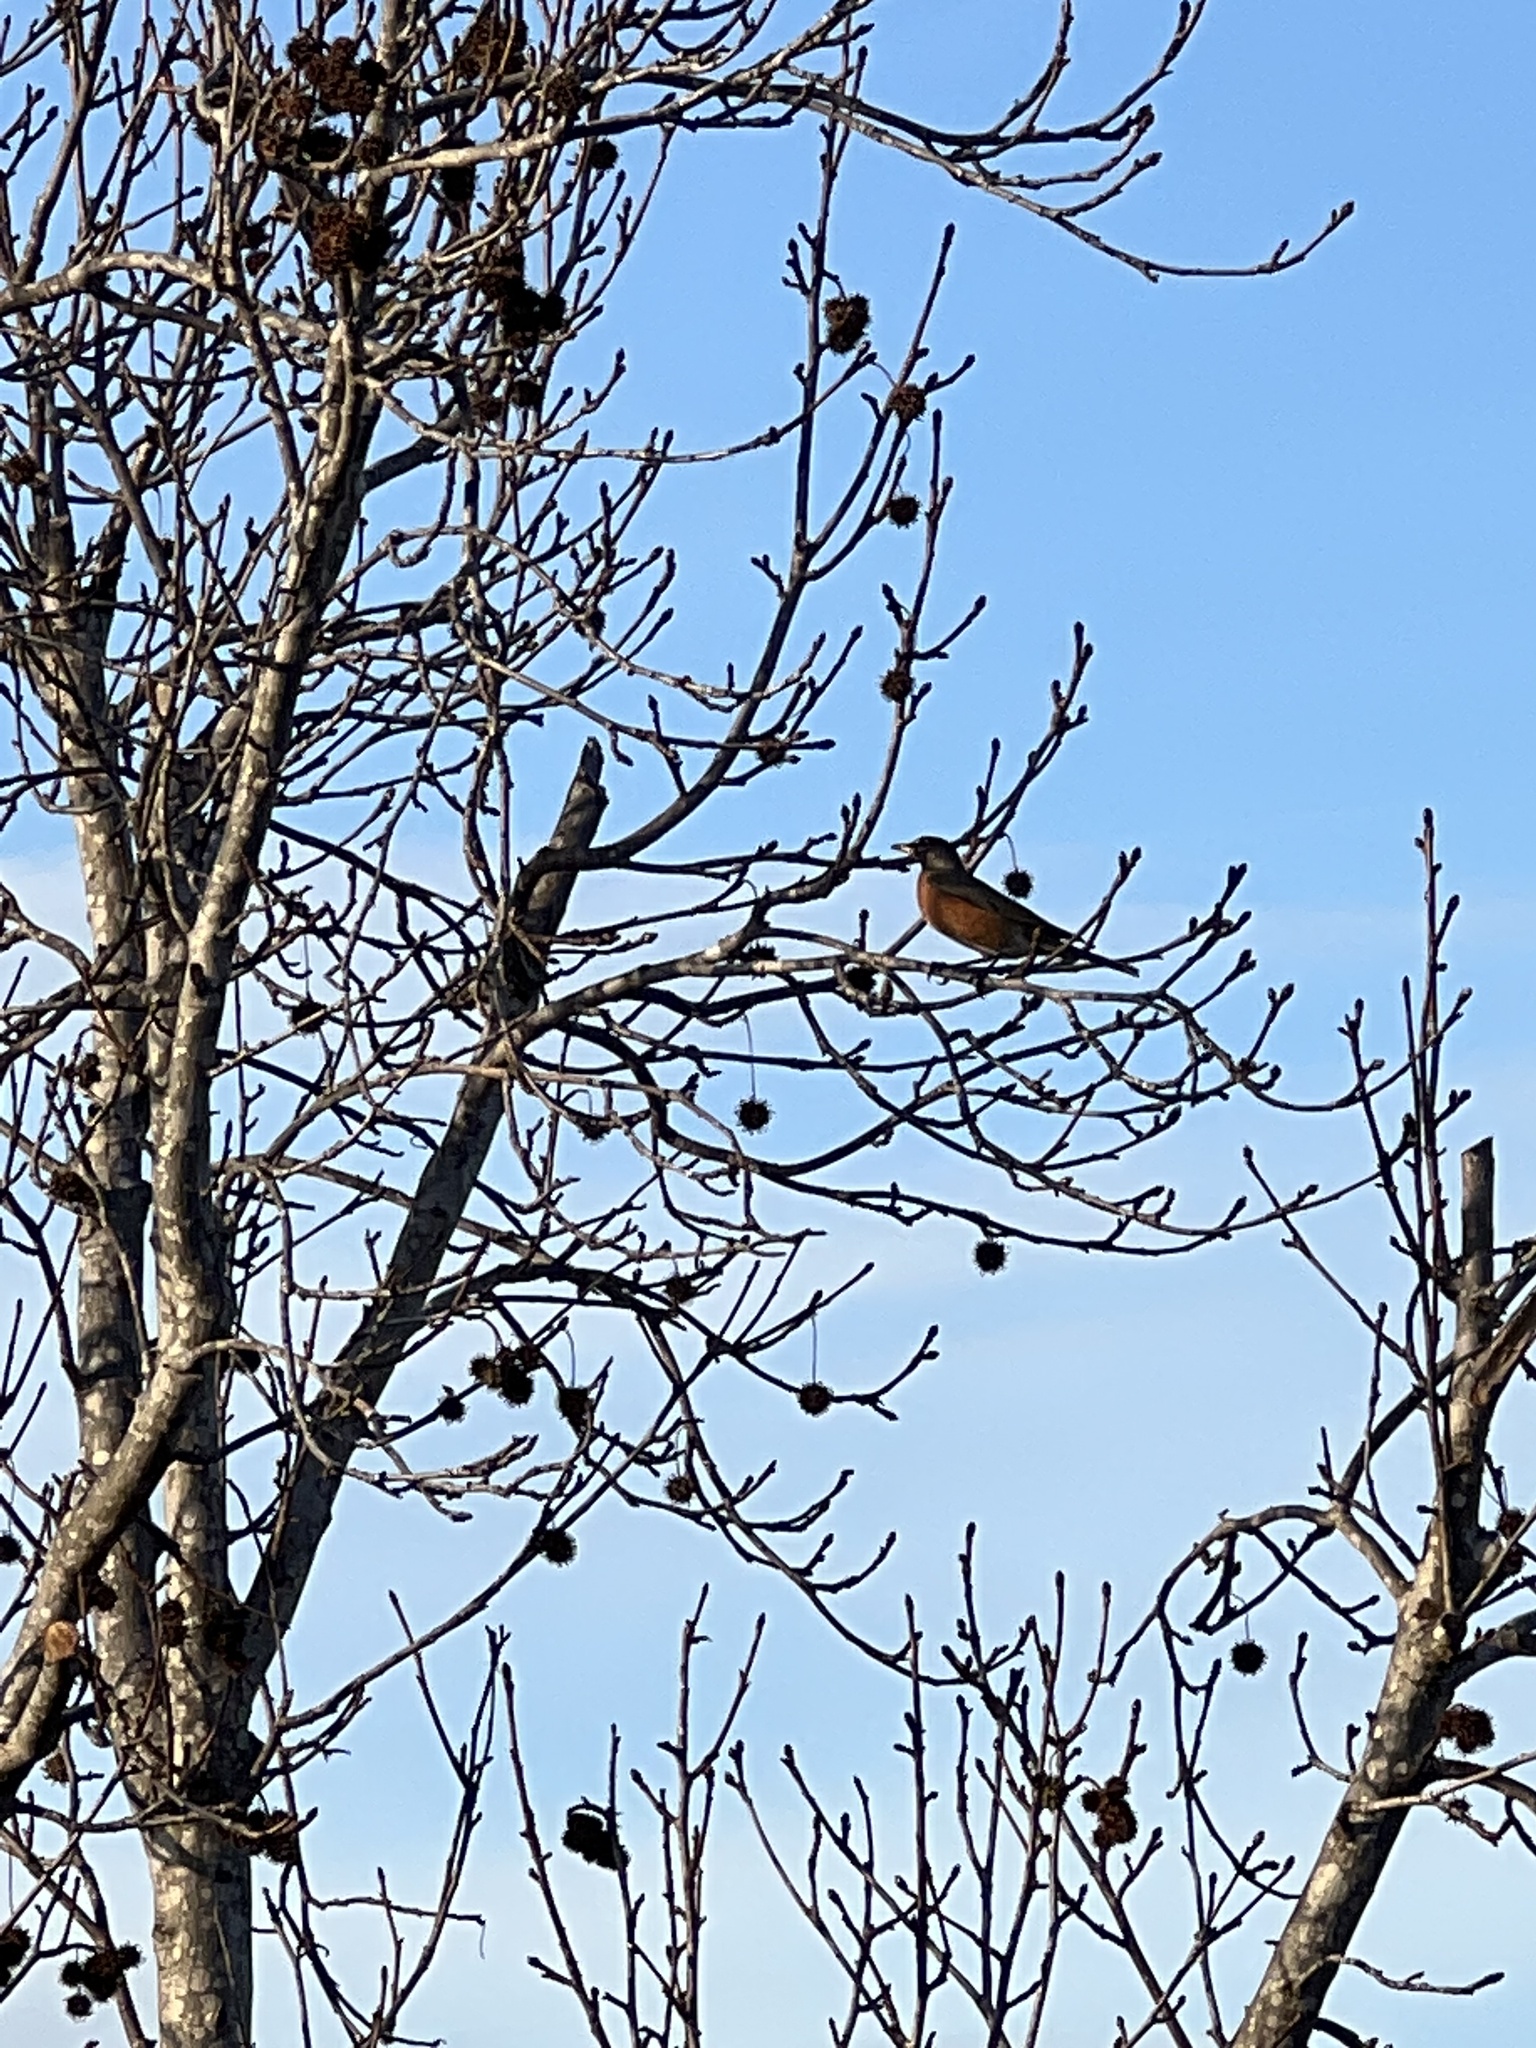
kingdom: Animalia
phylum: Chordata
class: Aves
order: Passeriformes
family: Turdidae
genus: Turdus
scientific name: Turdus migratorius
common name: American robin
